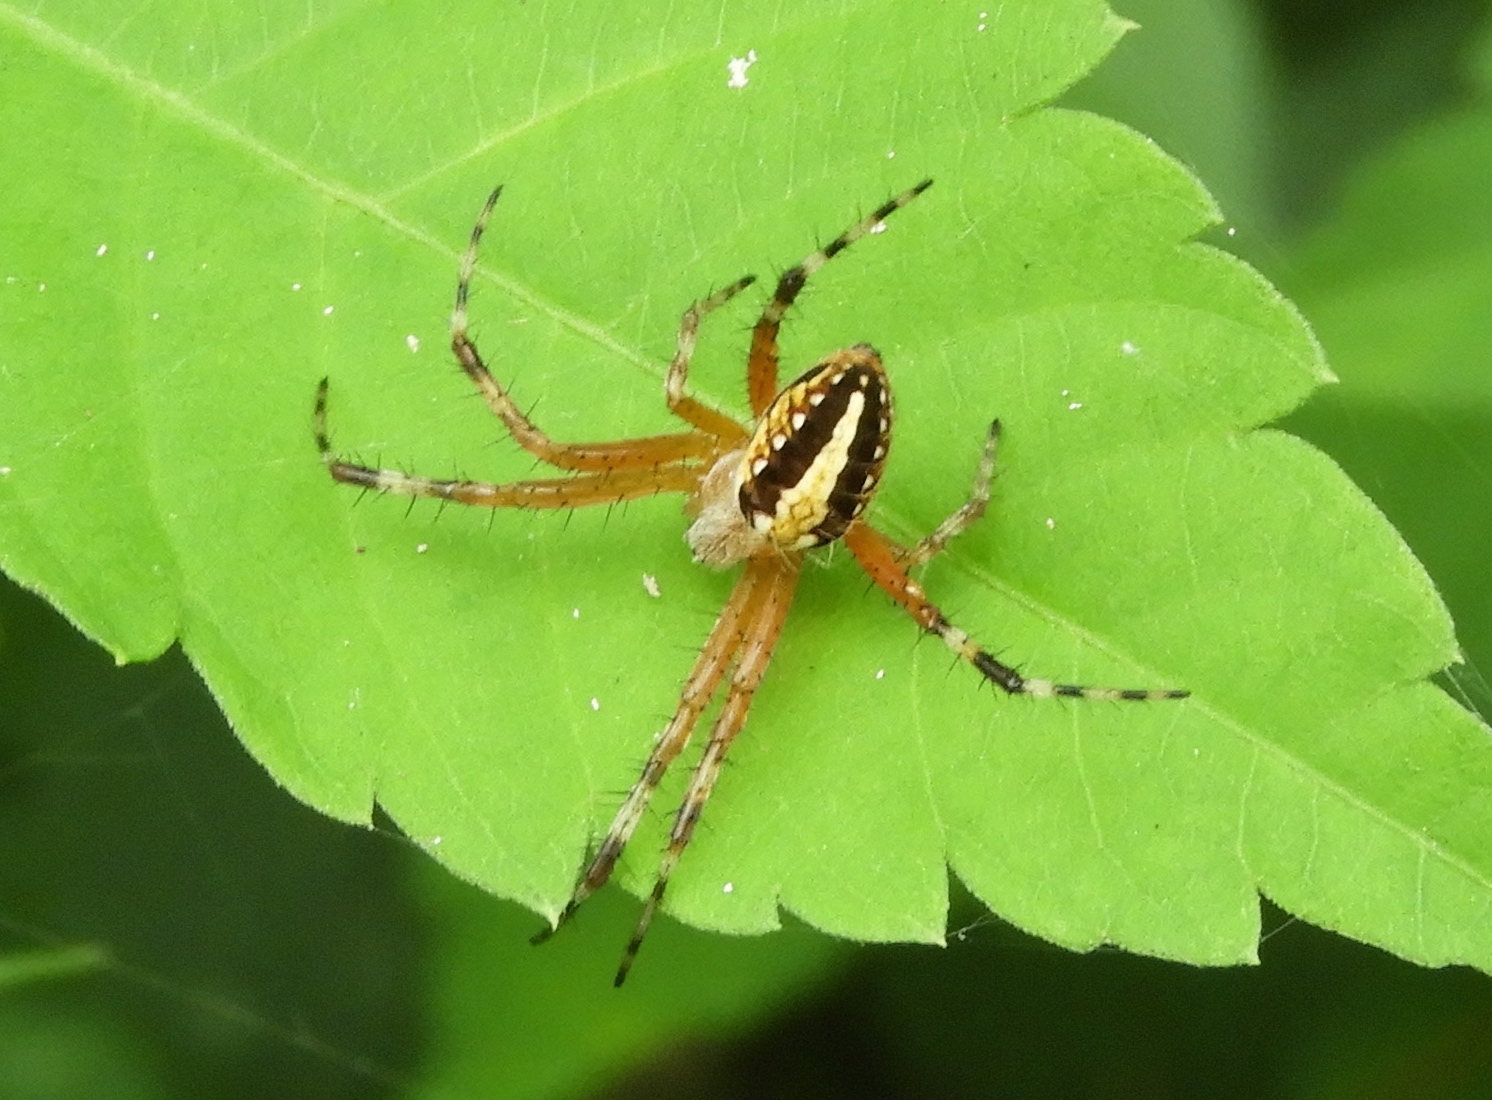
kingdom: Animalia
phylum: Arthropoda
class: Arachnida
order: Araneae
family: Araneidae
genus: Neoscona
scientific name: Neoscona oaxacensis
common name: Orb weavers
